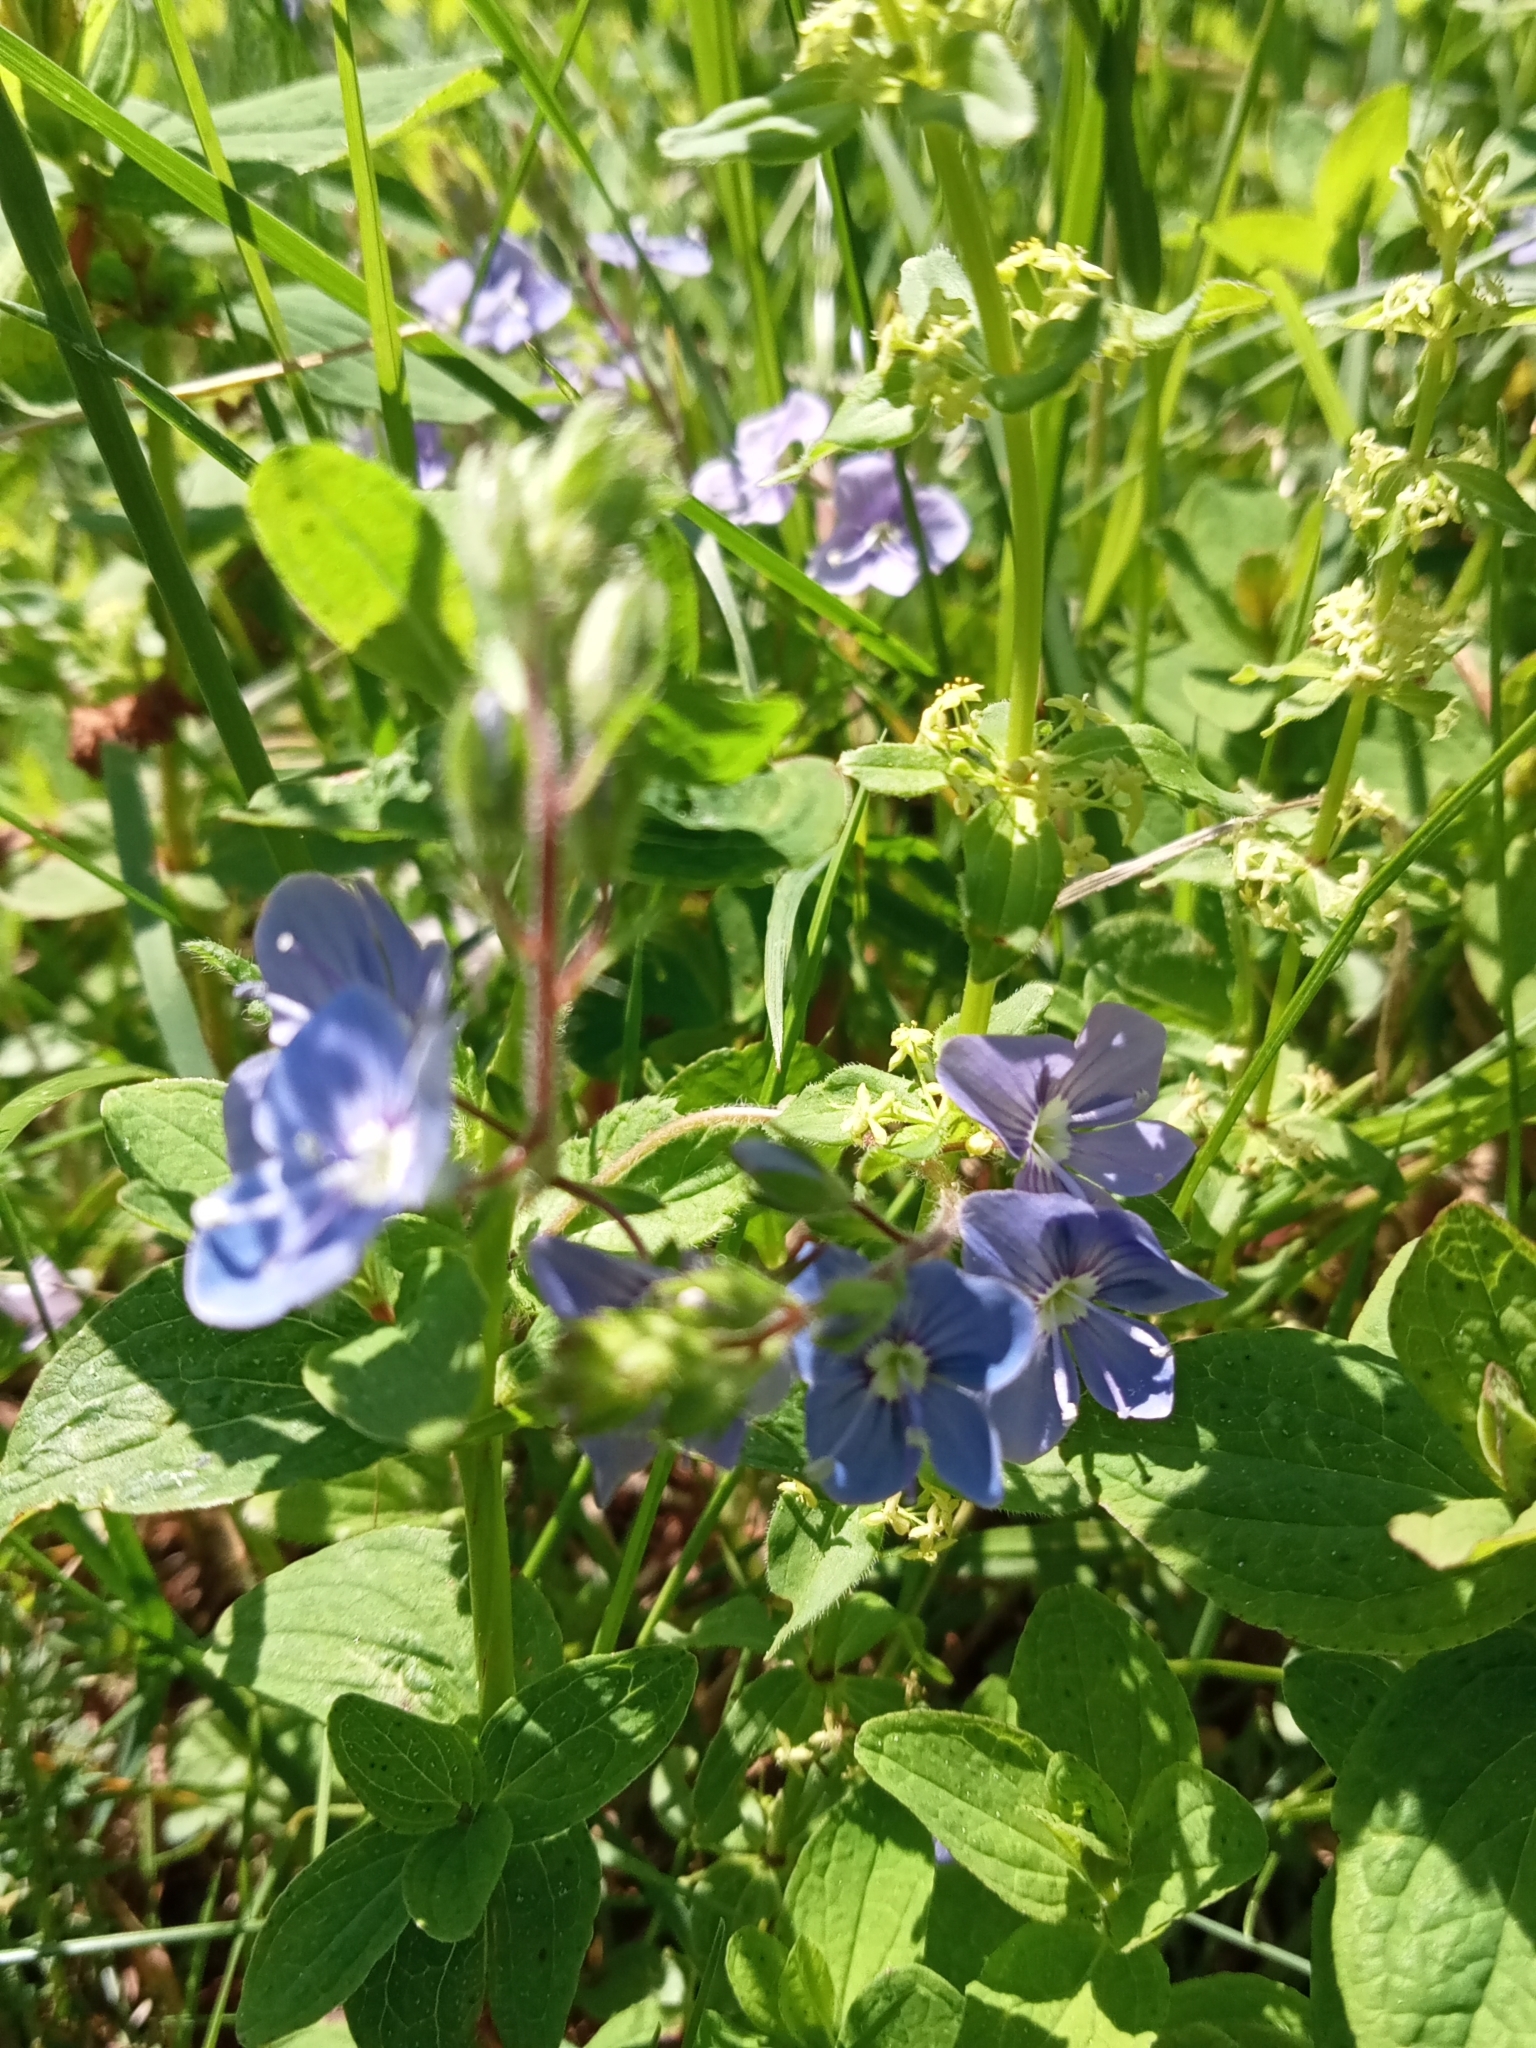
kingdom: Plantae
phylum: Tracheophyta
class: Magnoliopsida
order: Lamiales
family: Plantaginaceae
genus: Veronica
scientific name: Veronica chamaedrys
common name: Germander speedwell
